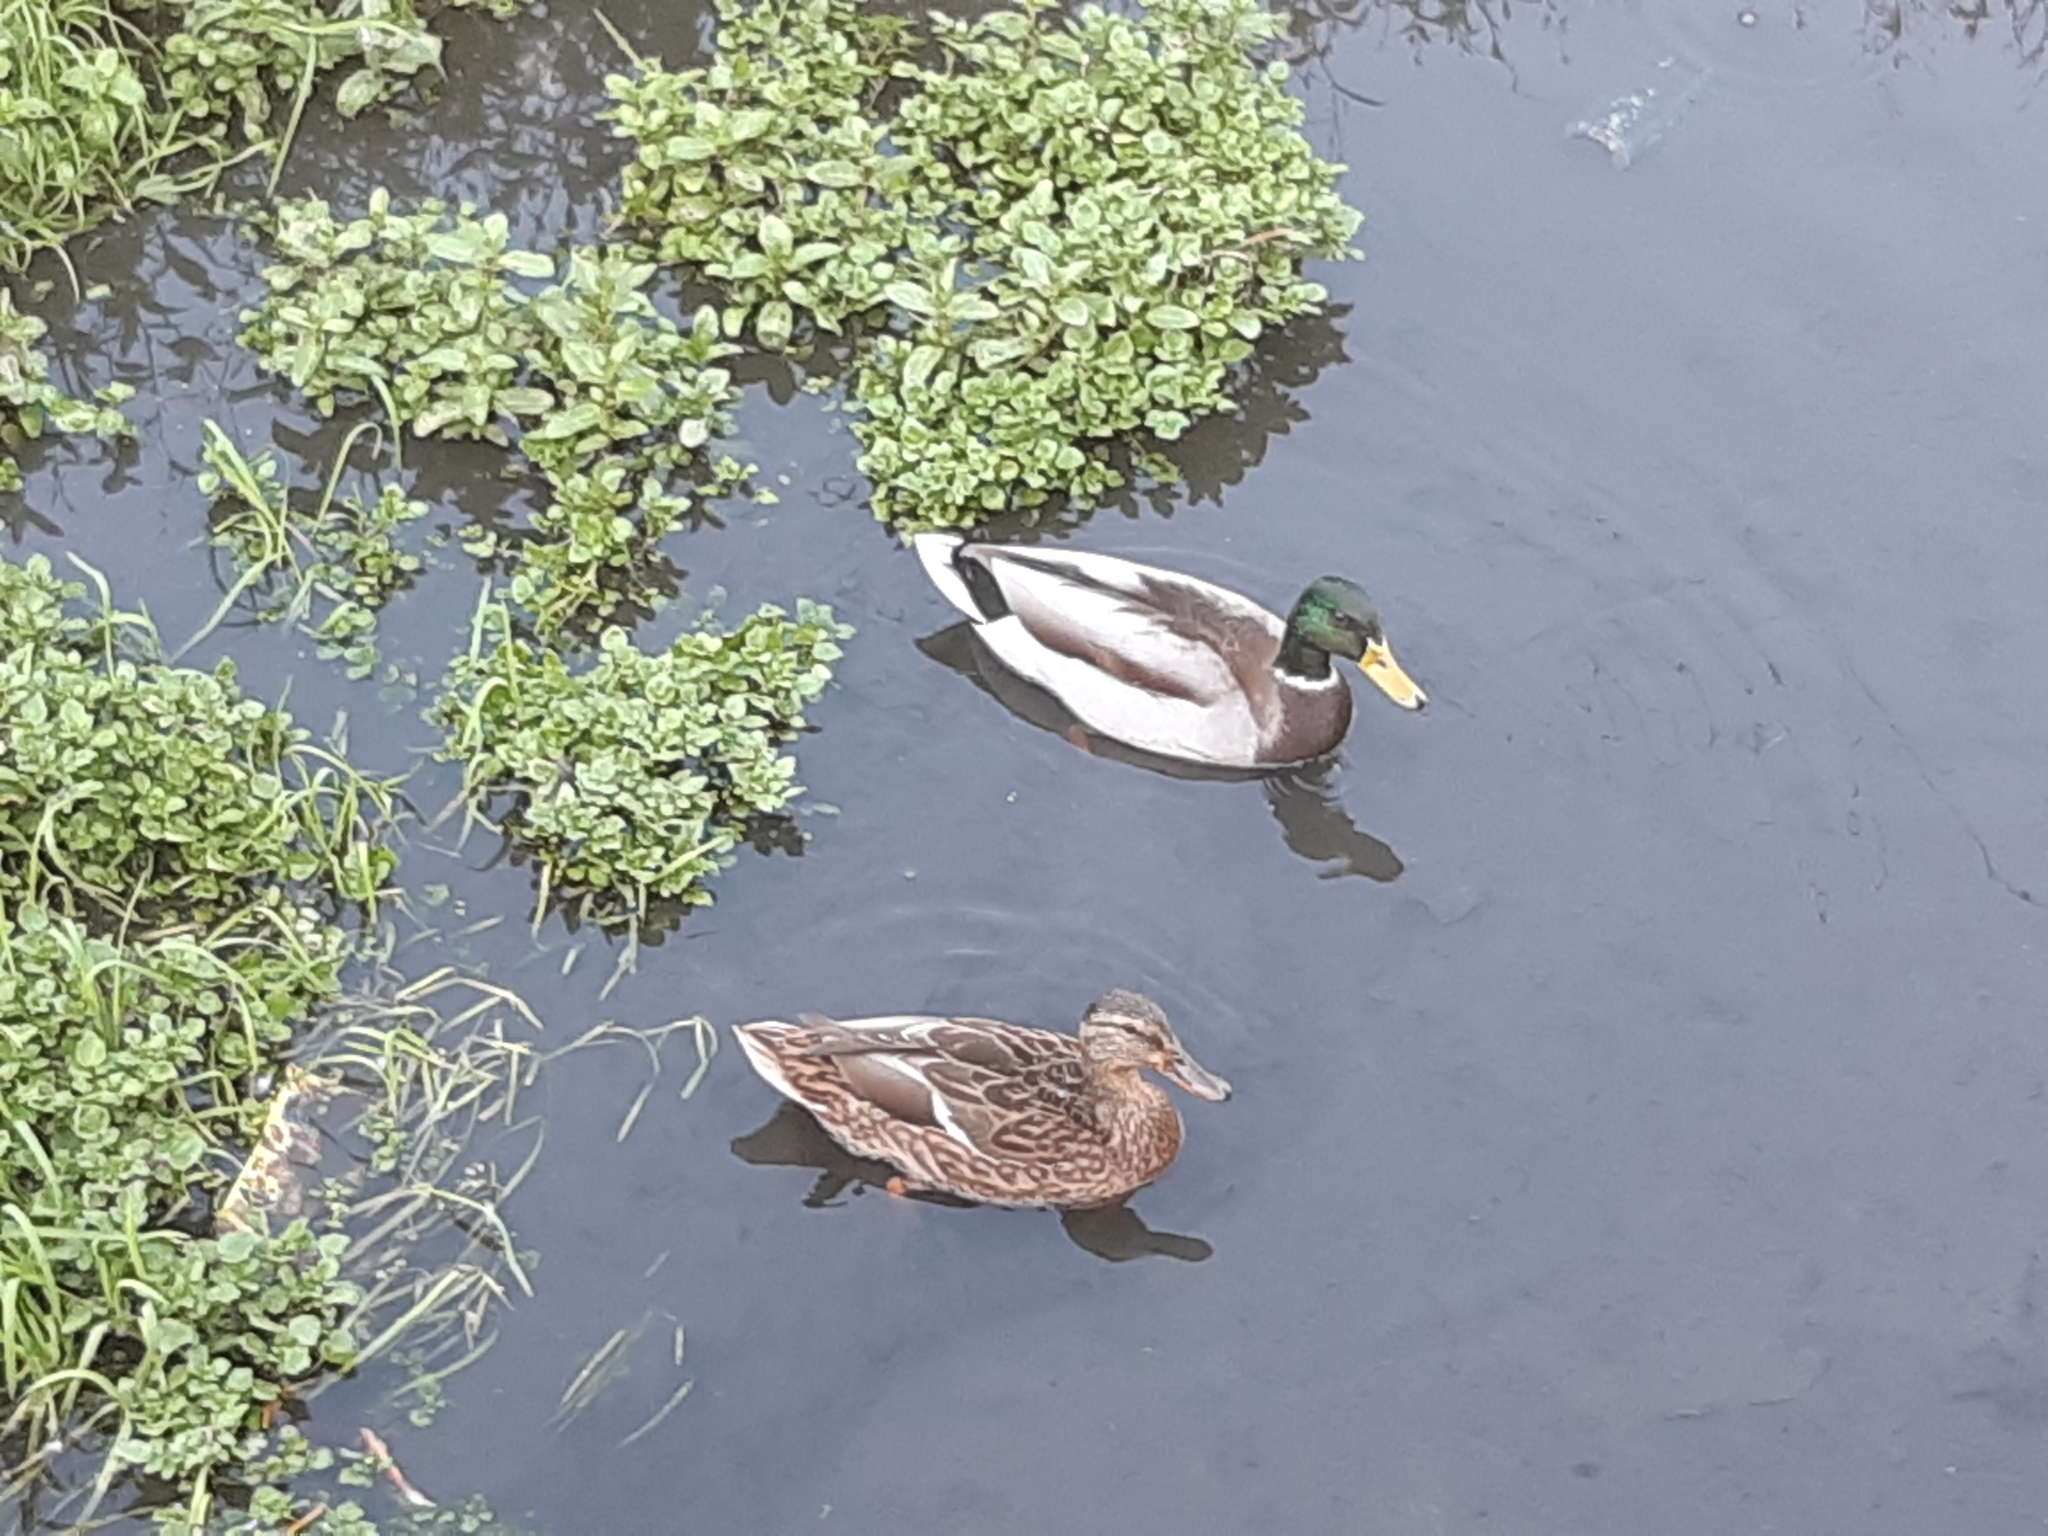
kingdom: Animalia
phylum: Chordata
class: Aves
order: Anseriformes
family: Anatidae
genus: Anas
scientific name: Anas platyrhynchos
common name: Mallard
